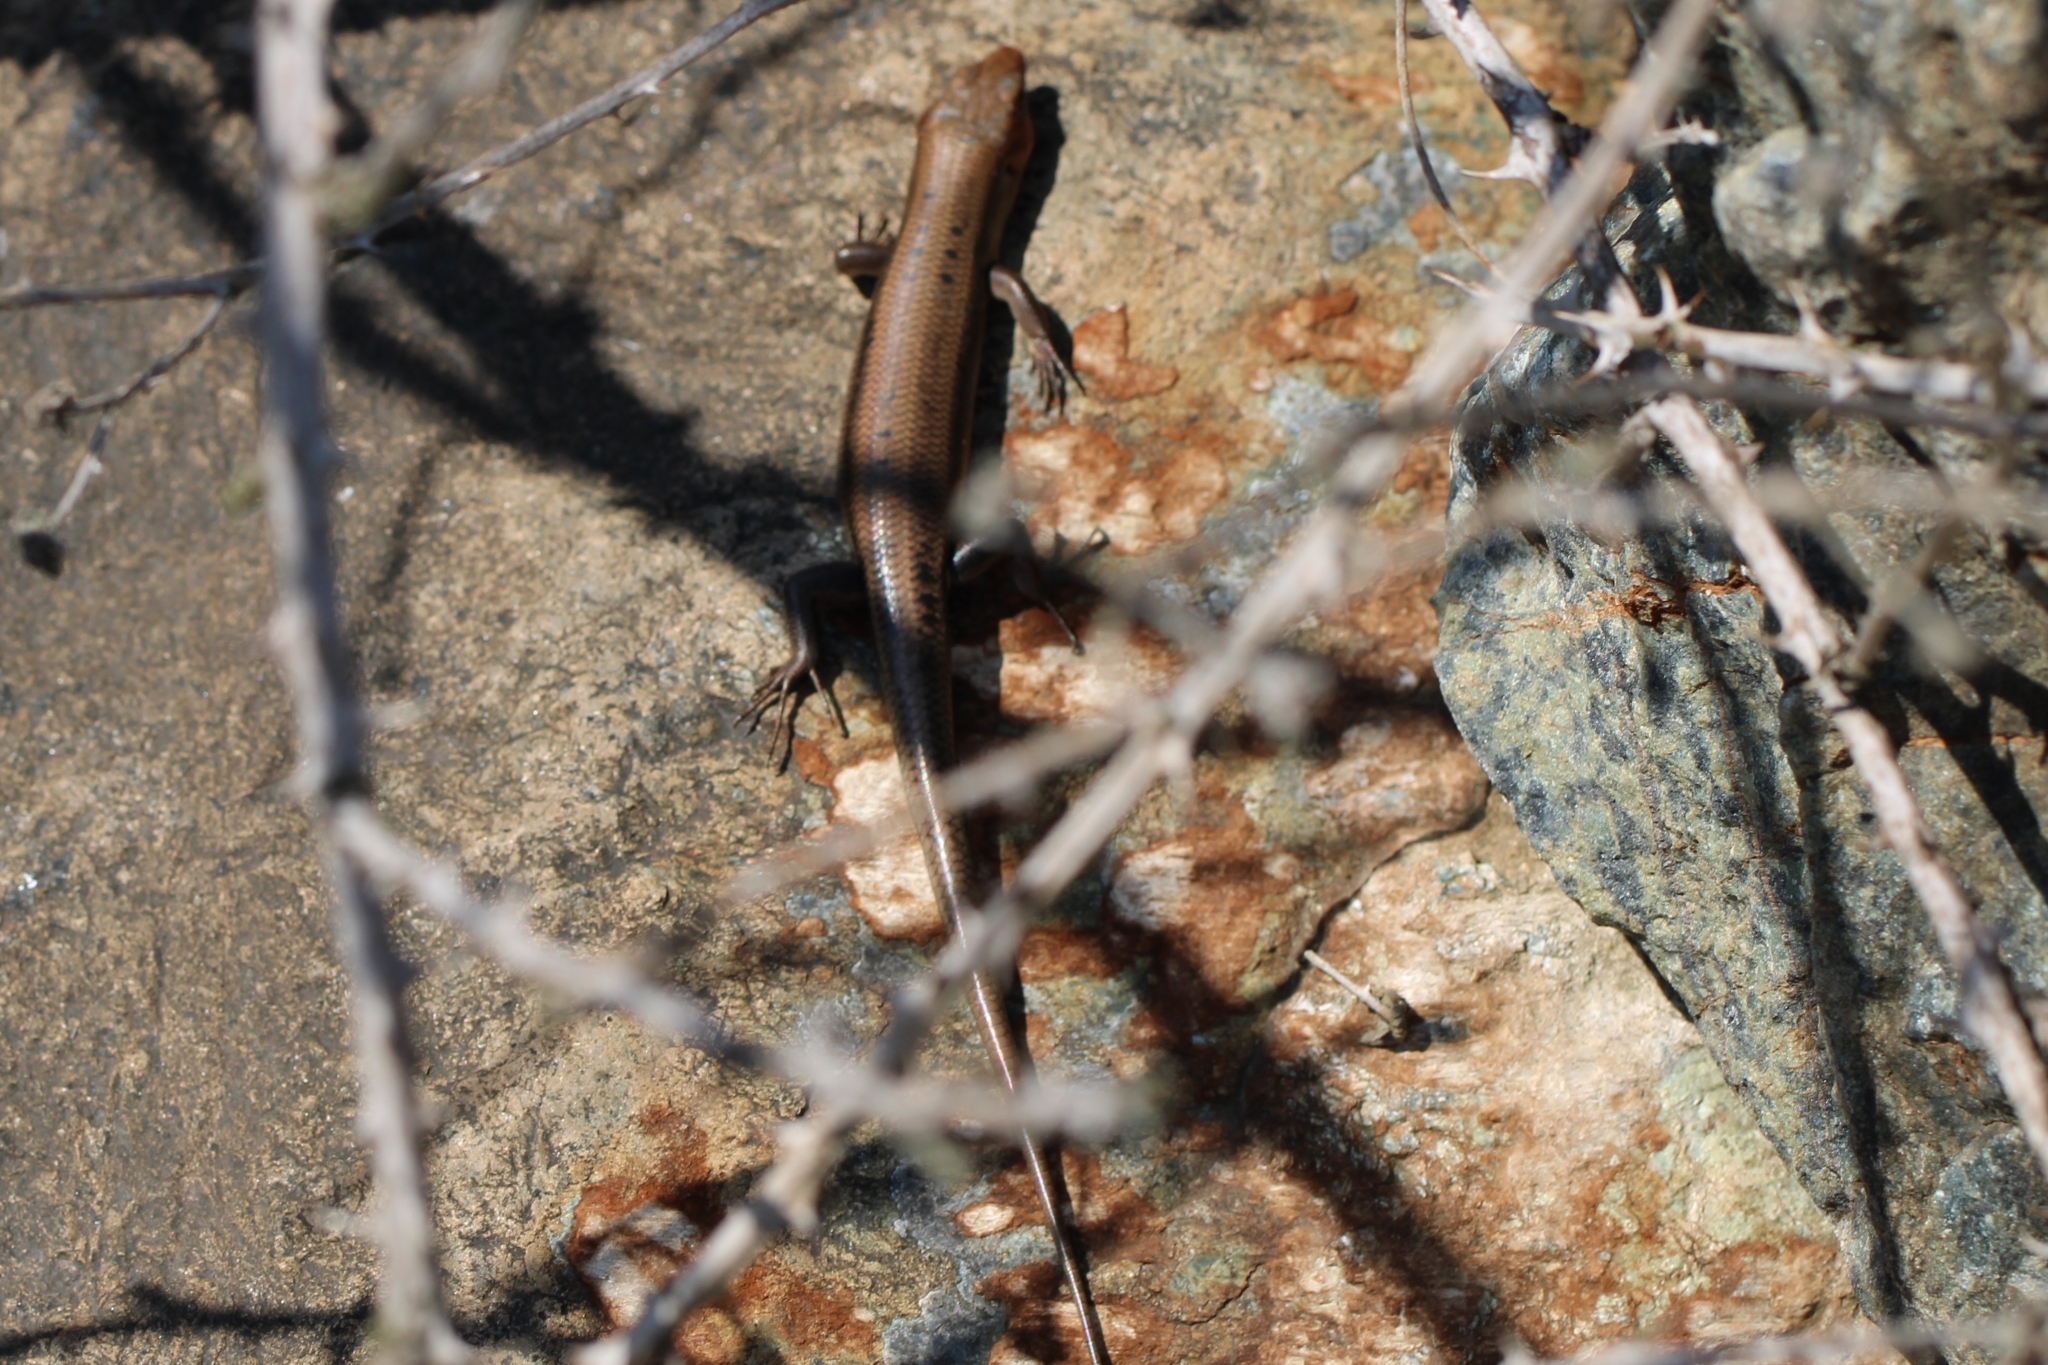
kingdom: Animalia
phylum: Chordata
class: Squamata
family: Scincidae
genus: Plestiodon
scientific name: Plestiodon fasciatus
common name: Five-lined skink
